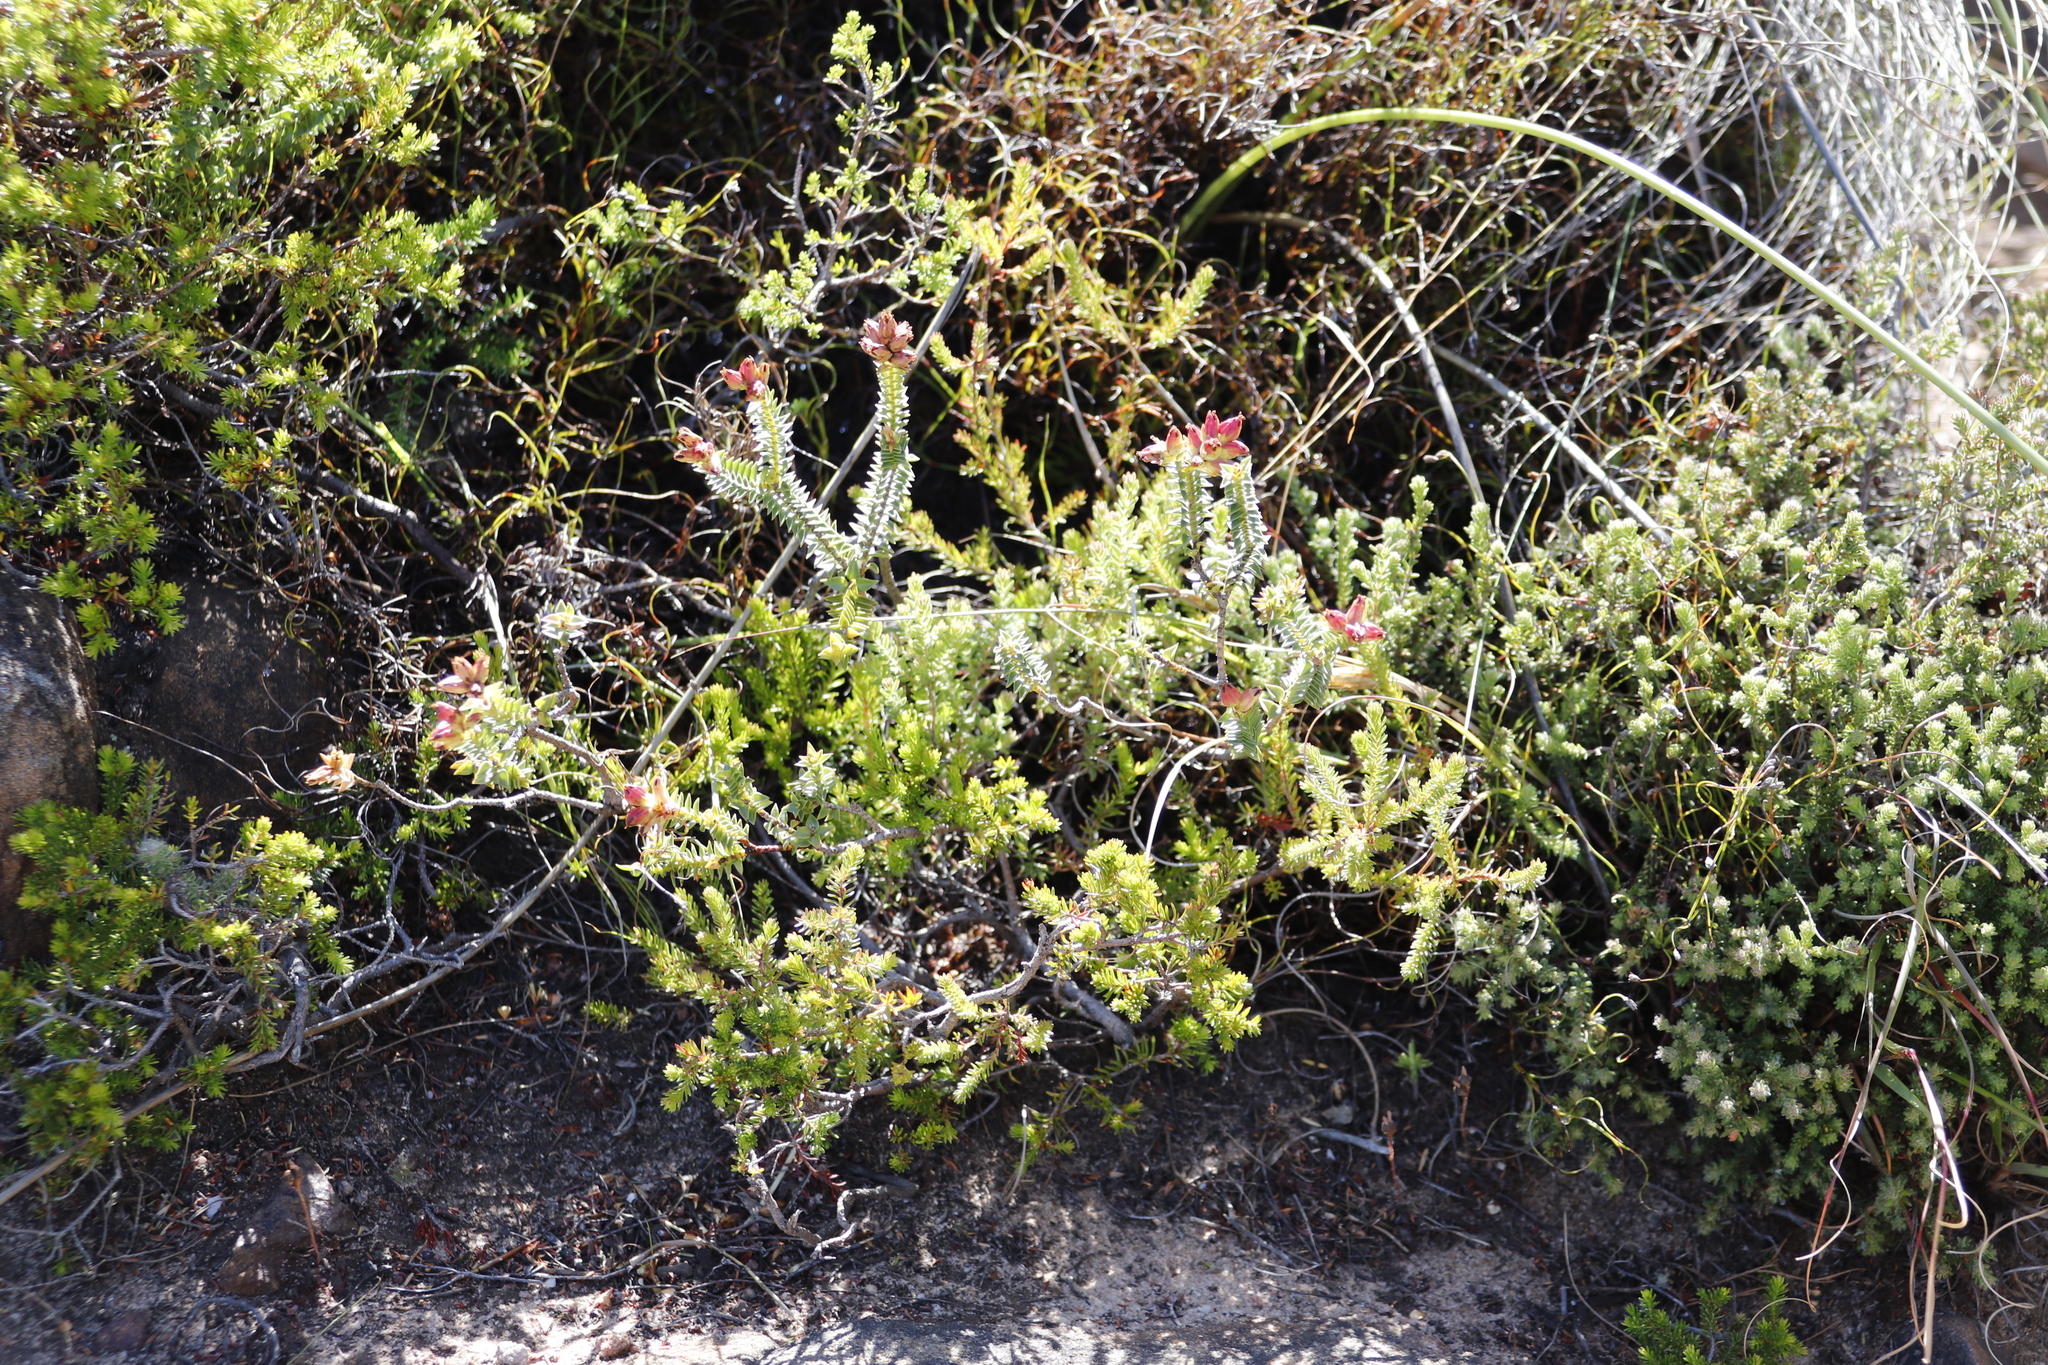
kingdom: Plantae
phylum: Tracheophyta
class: Magnoliopsida
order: Myrtales
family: Penaeaceae
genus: Penaea
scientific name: Penaea mucronata
